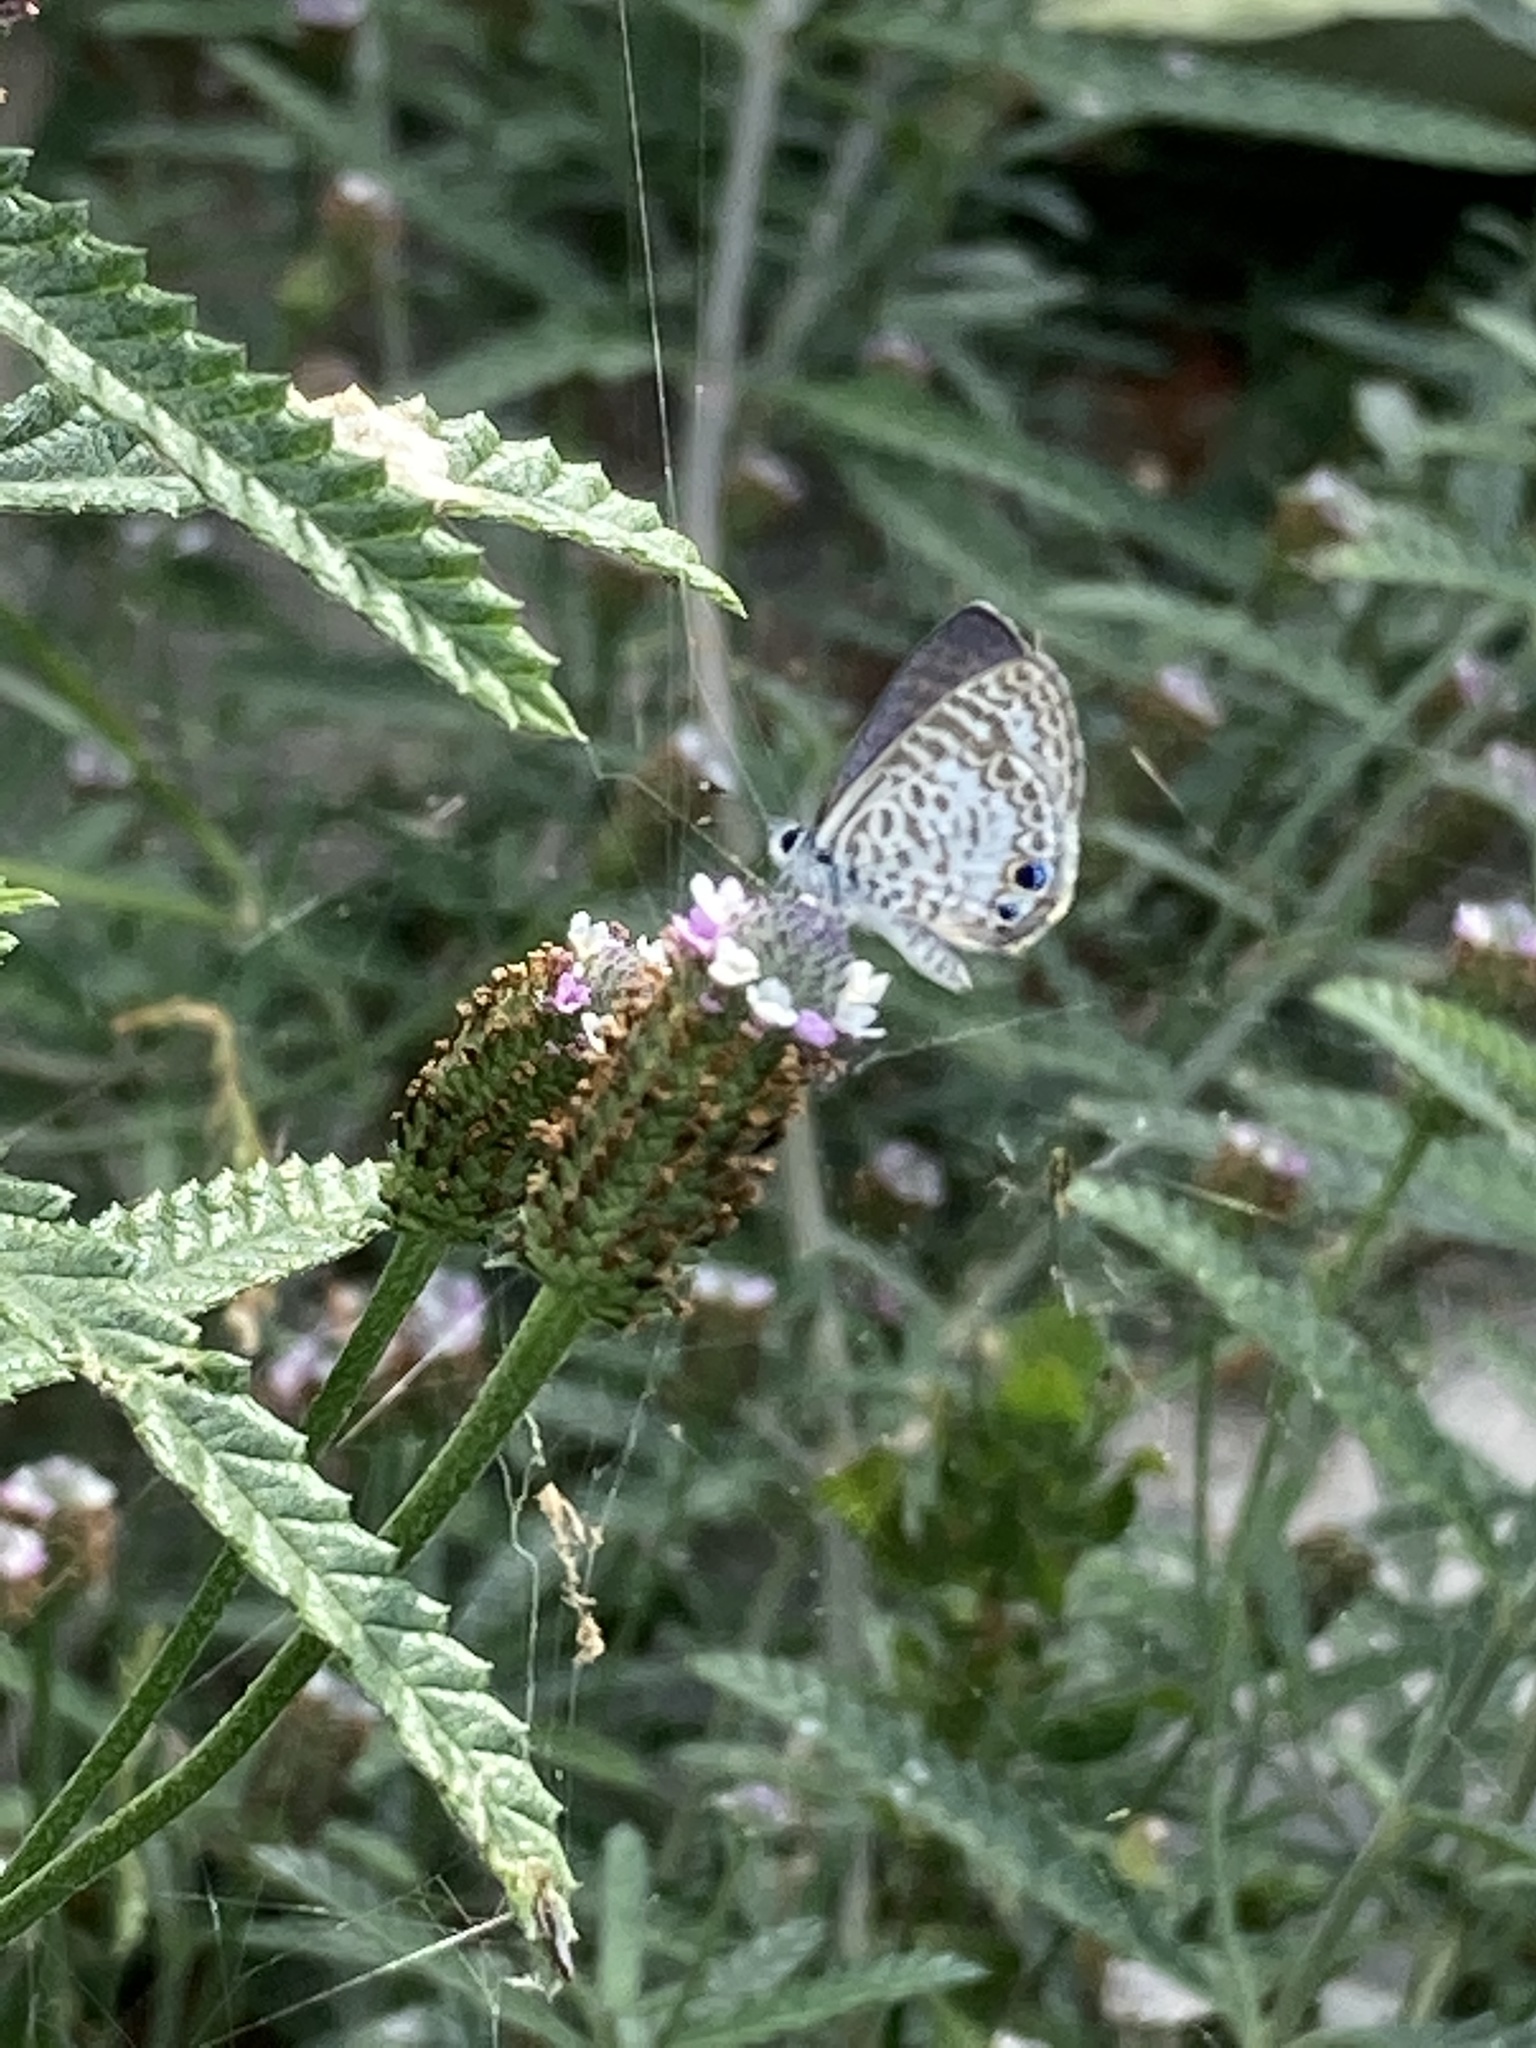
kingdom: Animalia
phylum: Arthropoda
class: Insecta
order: Lepidoptera
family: Lycaenidae
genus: Leptotes
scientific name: Leptotes cassius
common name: Cassius blue
